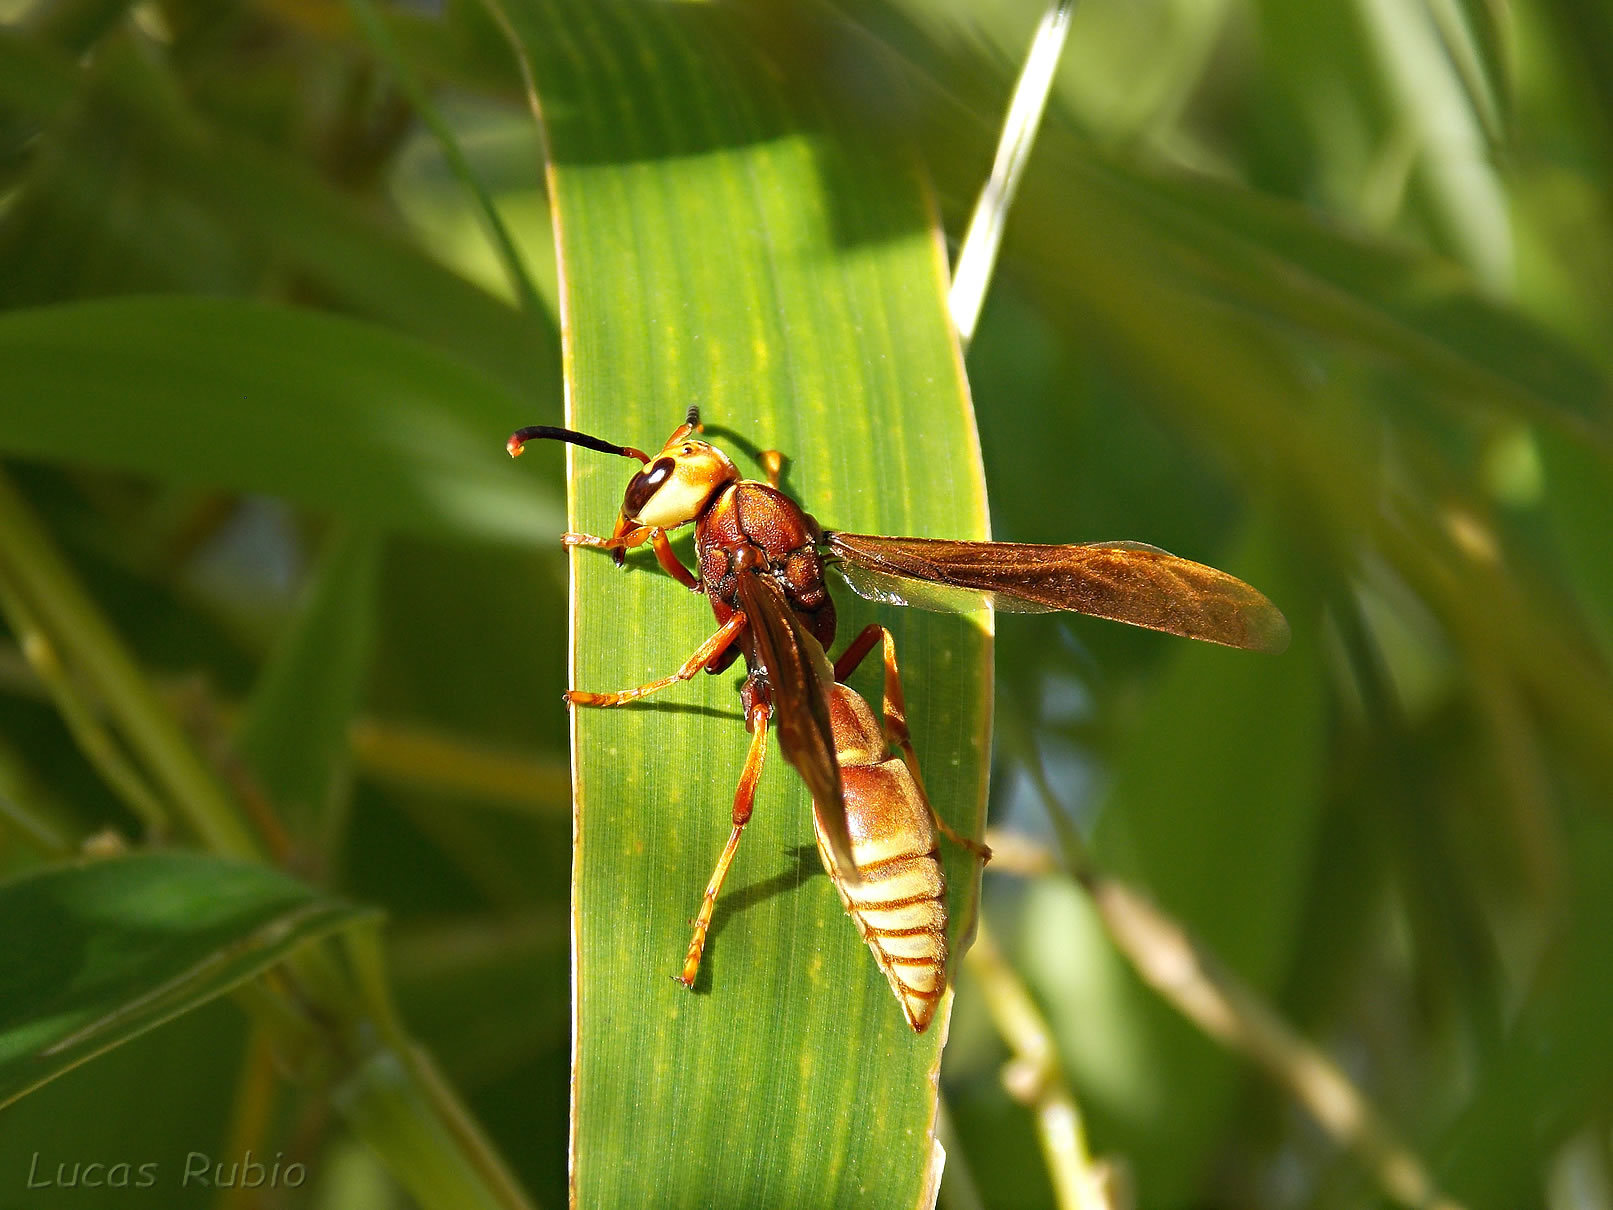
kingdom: Animalia
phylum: Arthropoda
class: Insecta
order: Hymenoptera
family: Eumenidae
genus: Montezumia
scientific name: Montezumia ferruginea
